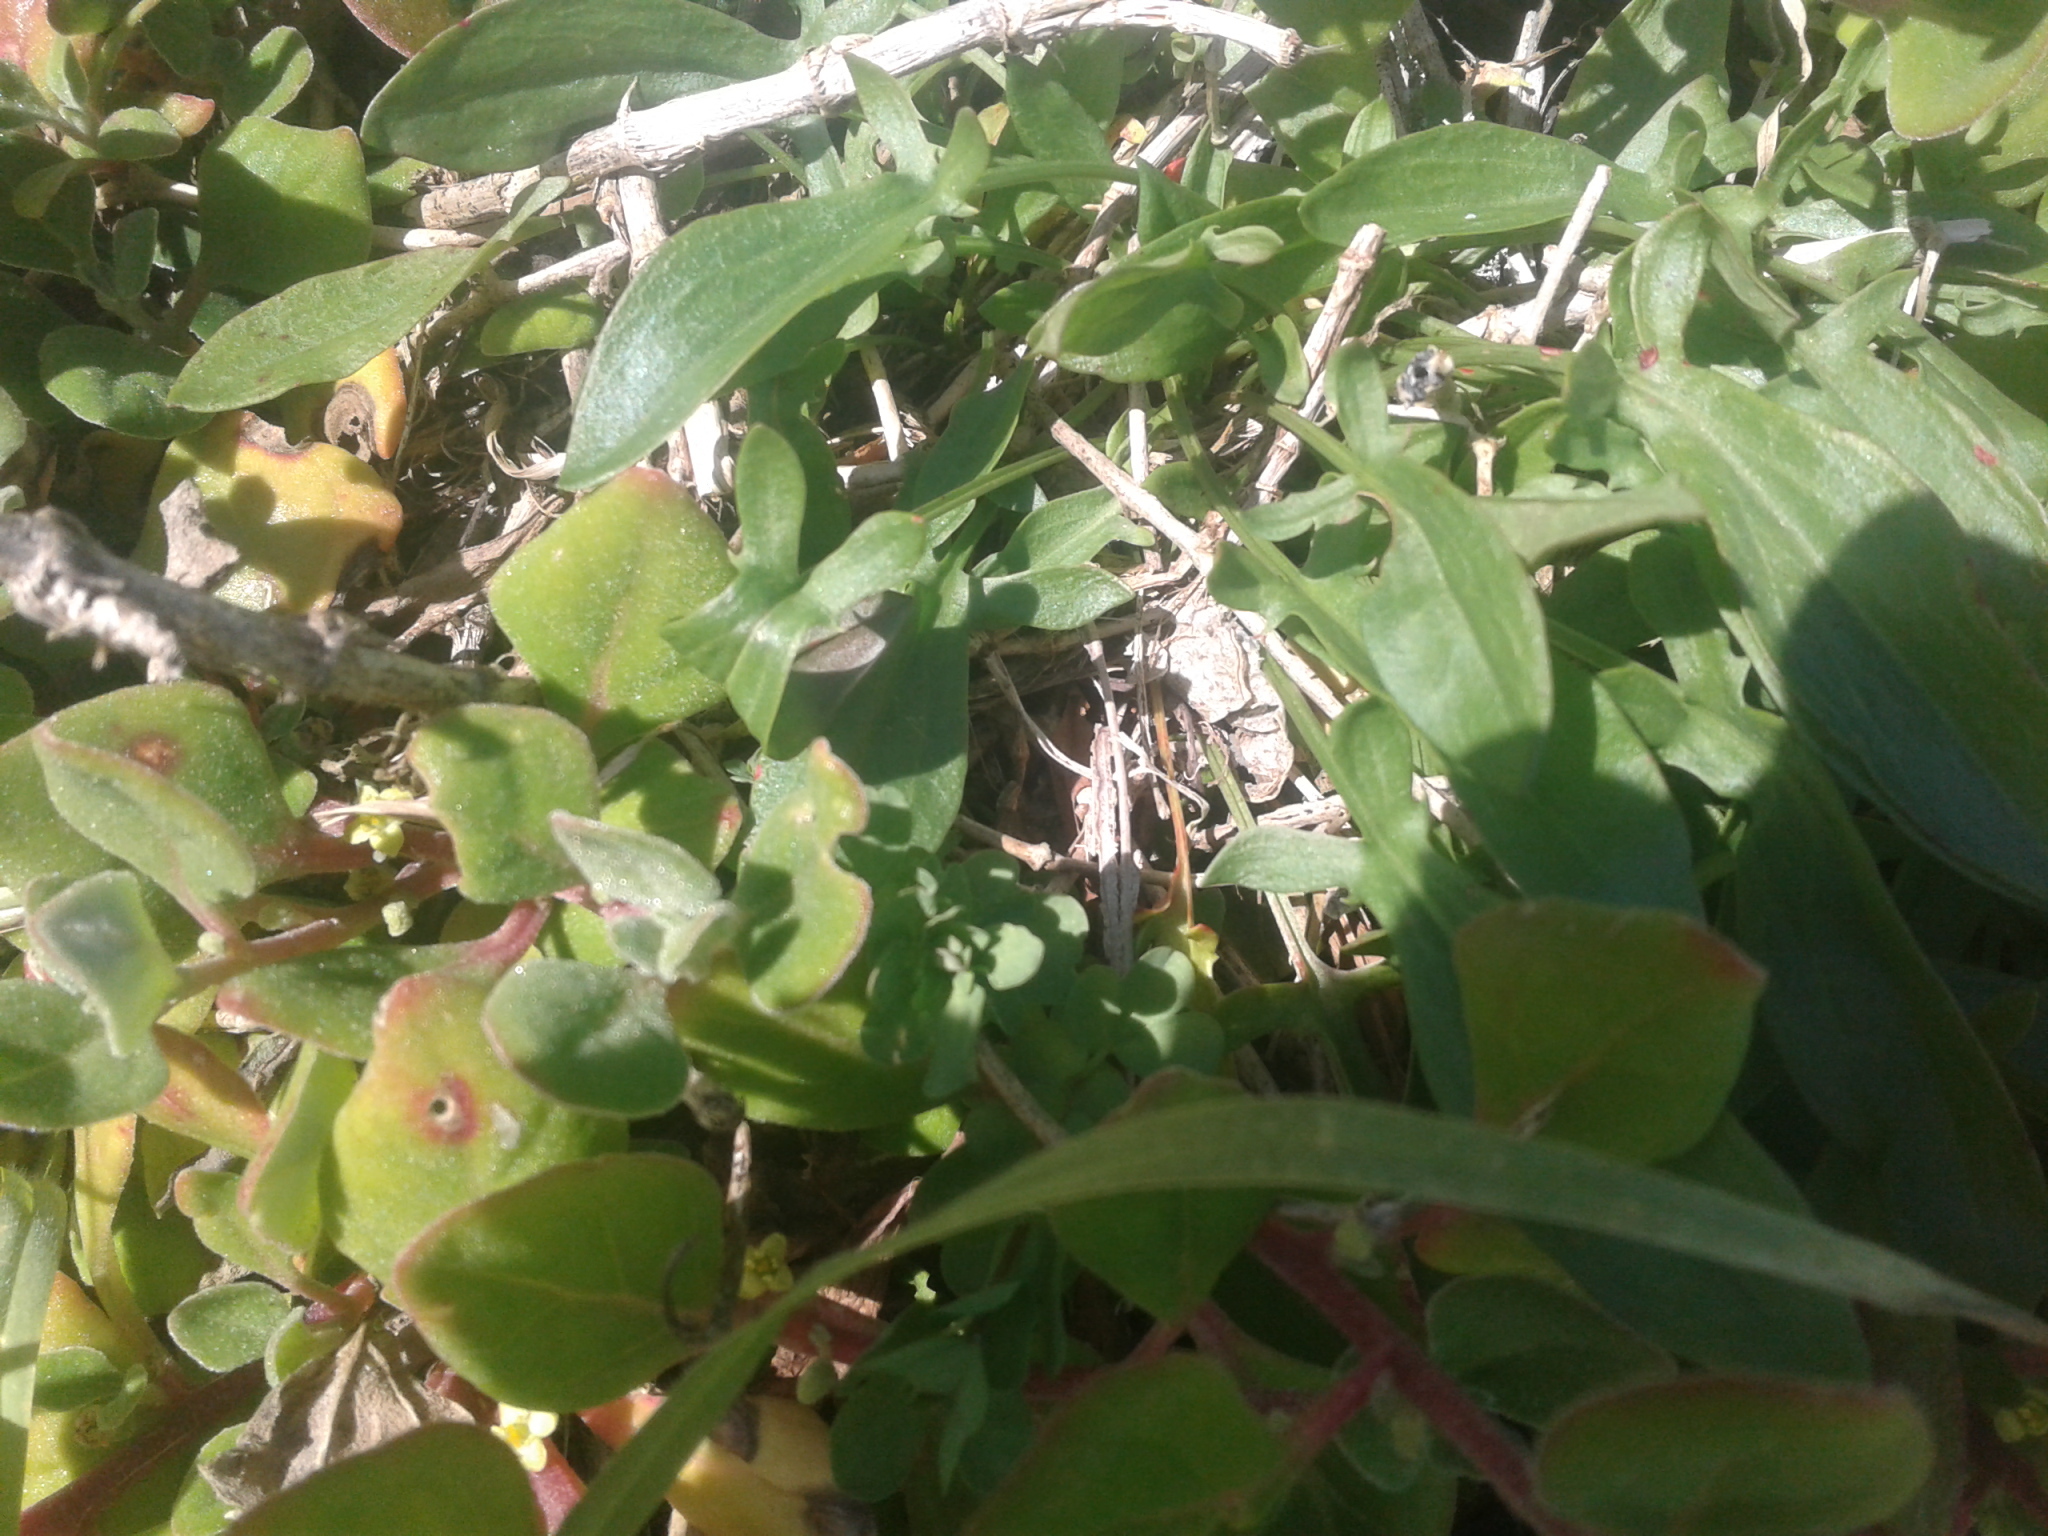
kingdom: Plantae
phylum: Tracheophyta
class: Magnoliopsida
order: Caryophyllales
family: Polygonaceae
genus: Rumex
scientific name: Rumex acetosella
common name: Common sheep sorrel
